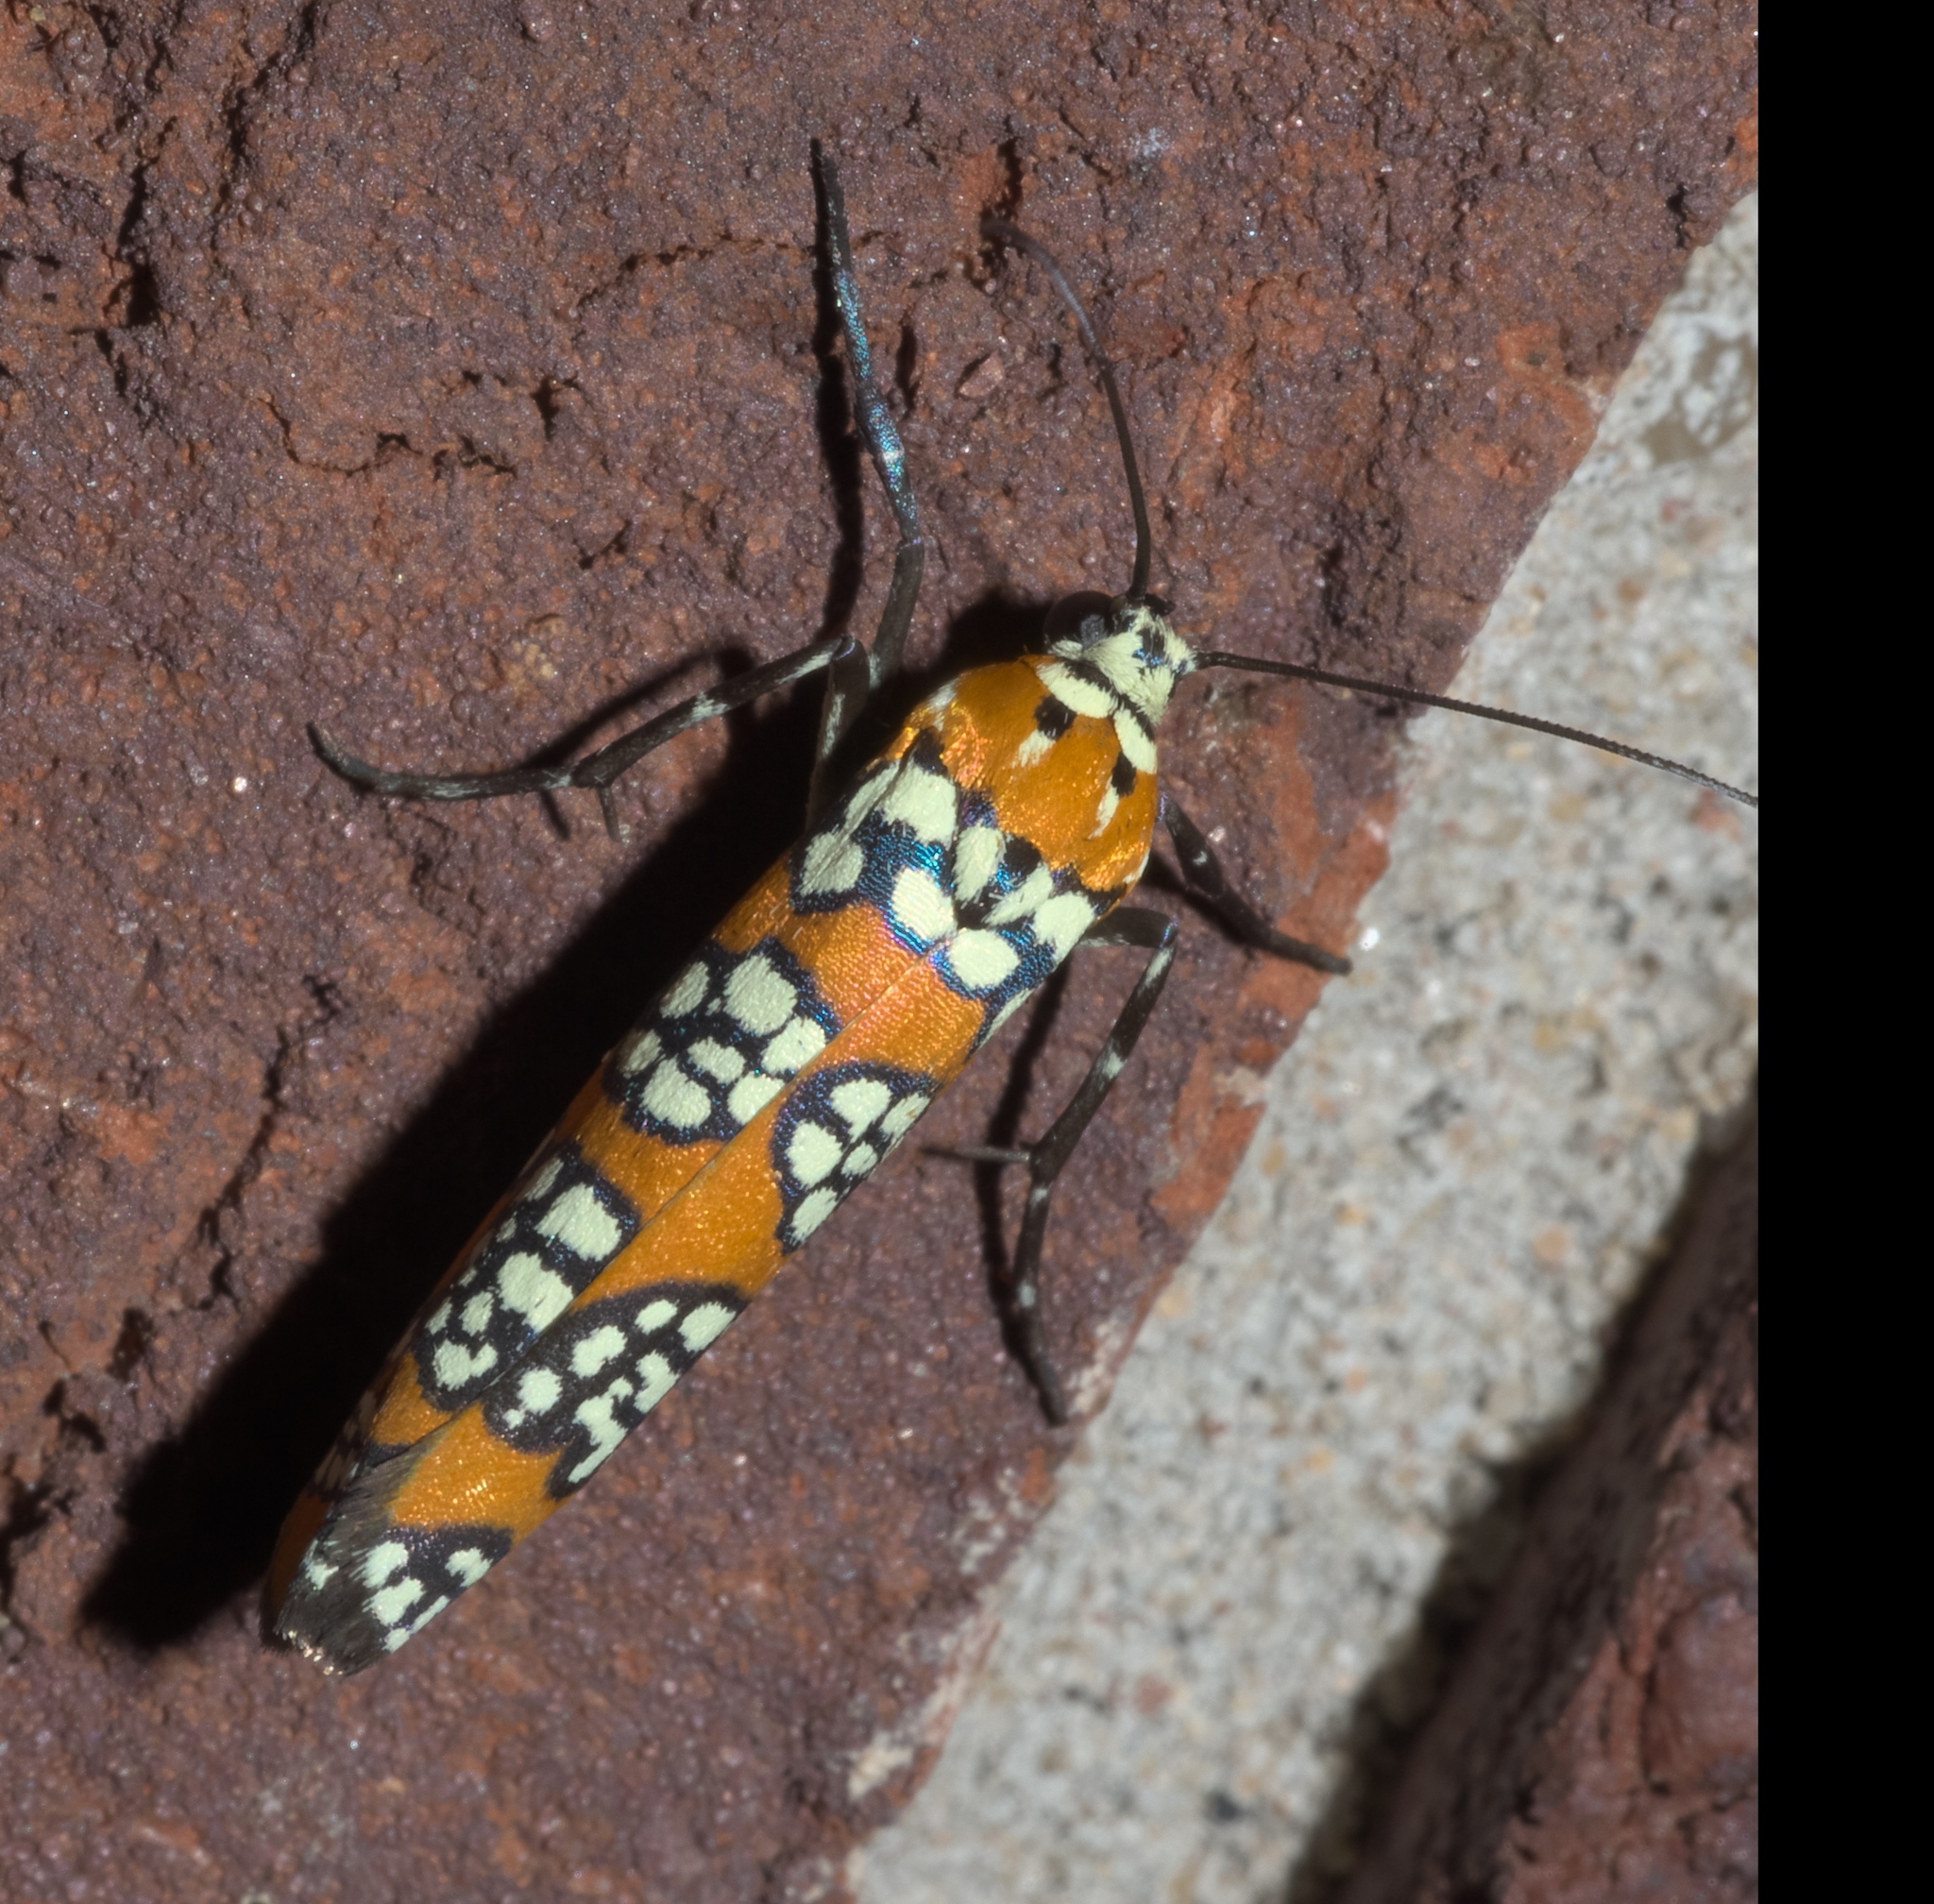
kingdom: Animalia
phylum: Arthropoda
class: Insecta
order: Lepidoptera
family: Attevidae
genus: Atteva
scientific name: Atteva punctella
